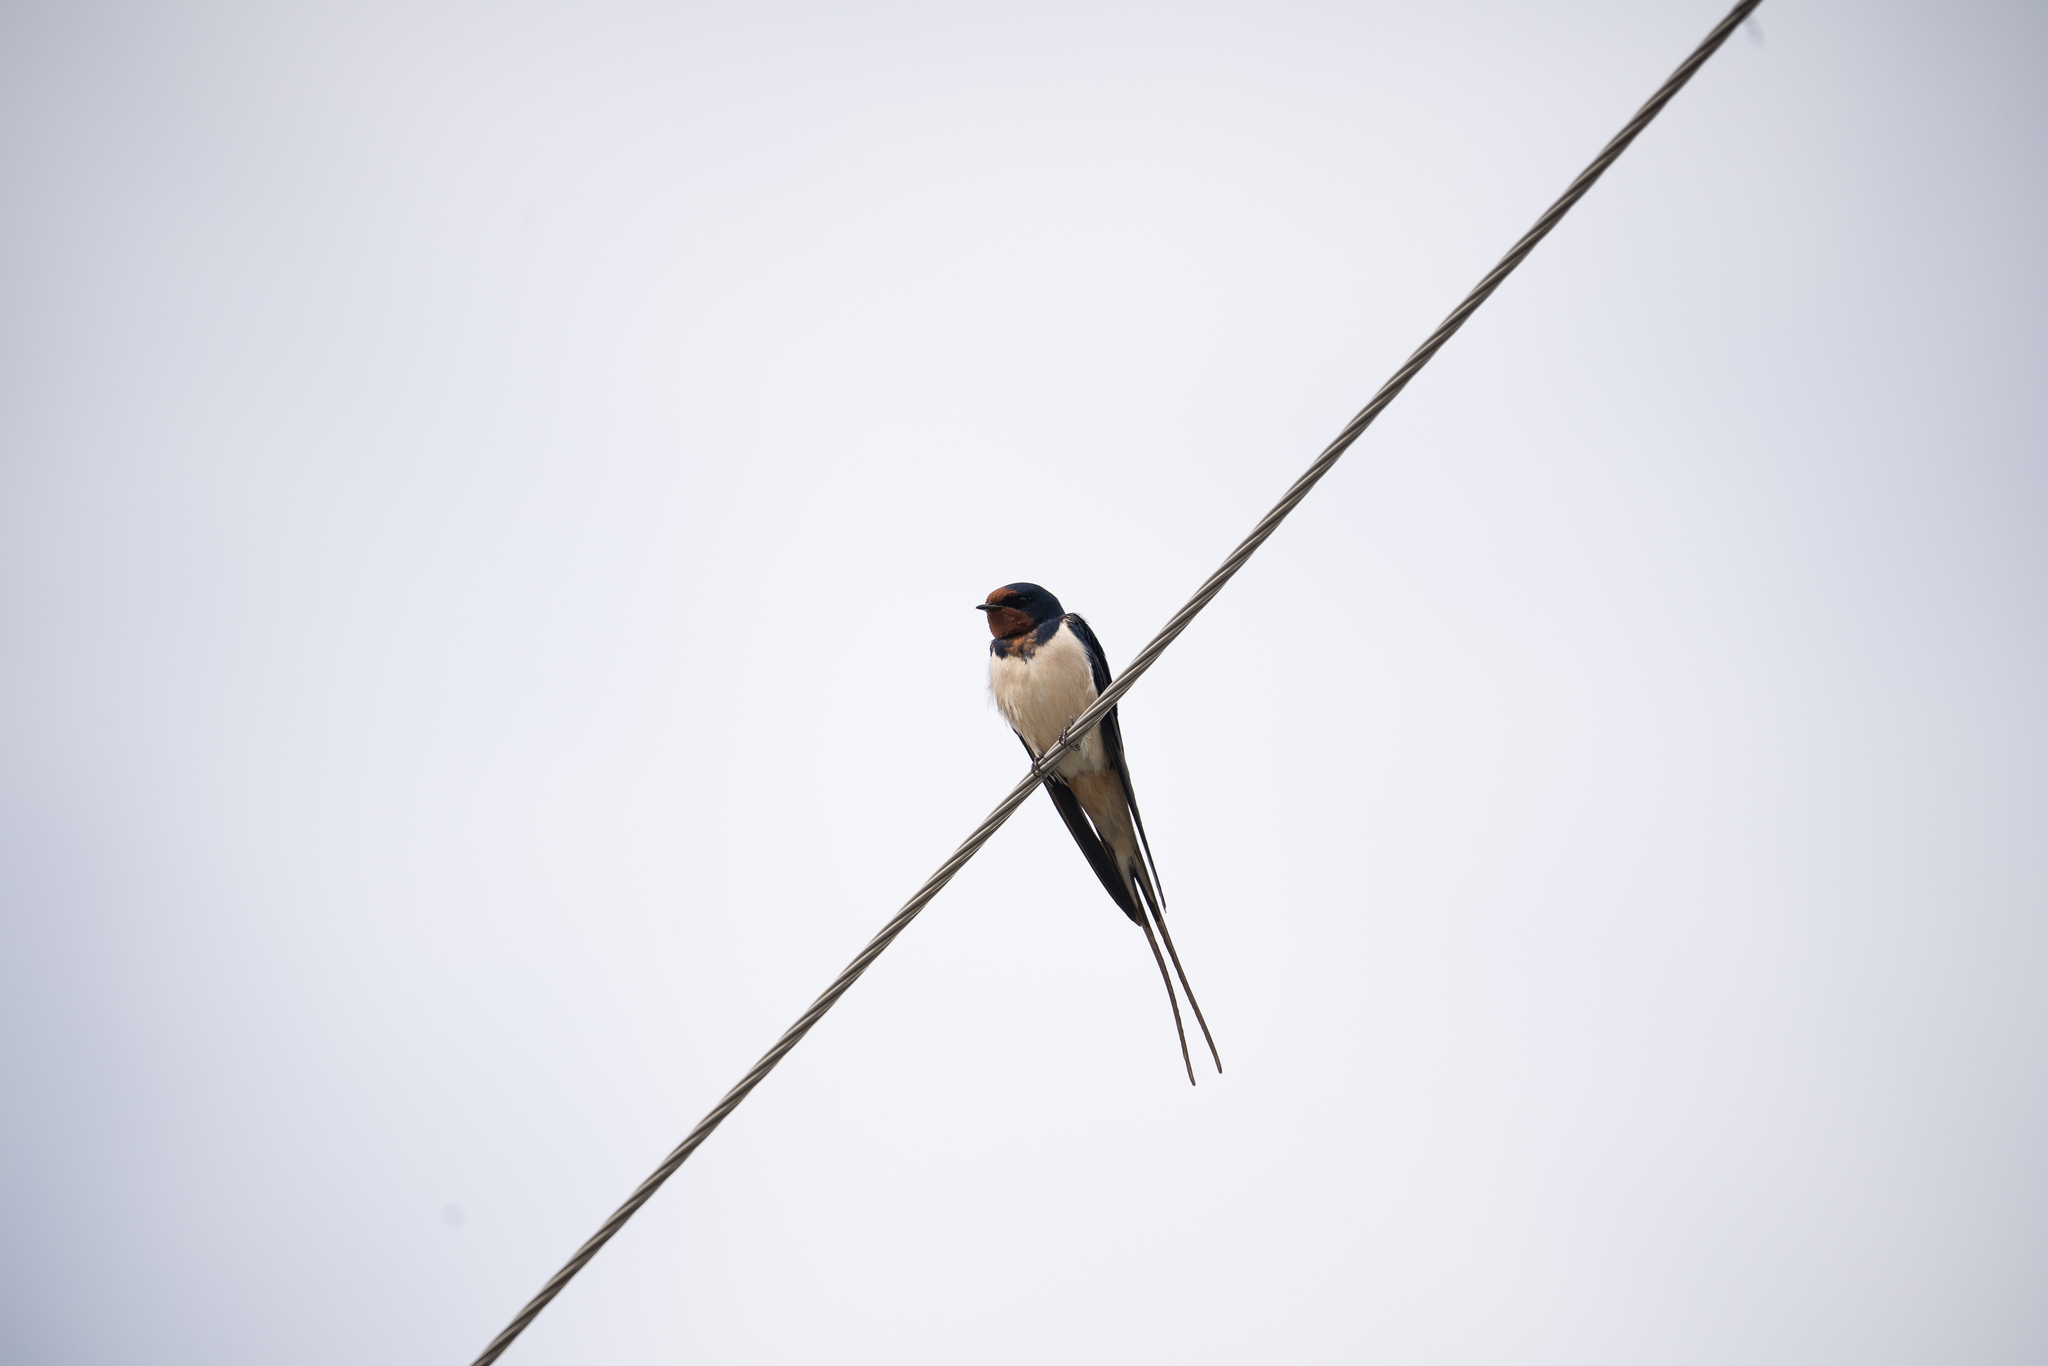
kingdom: Animalia
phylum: Chordata
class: Aves
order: Passeriformes
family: Hirundinidae
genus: Hirundo
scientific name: Hirundo rustica
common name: Barn swallow
